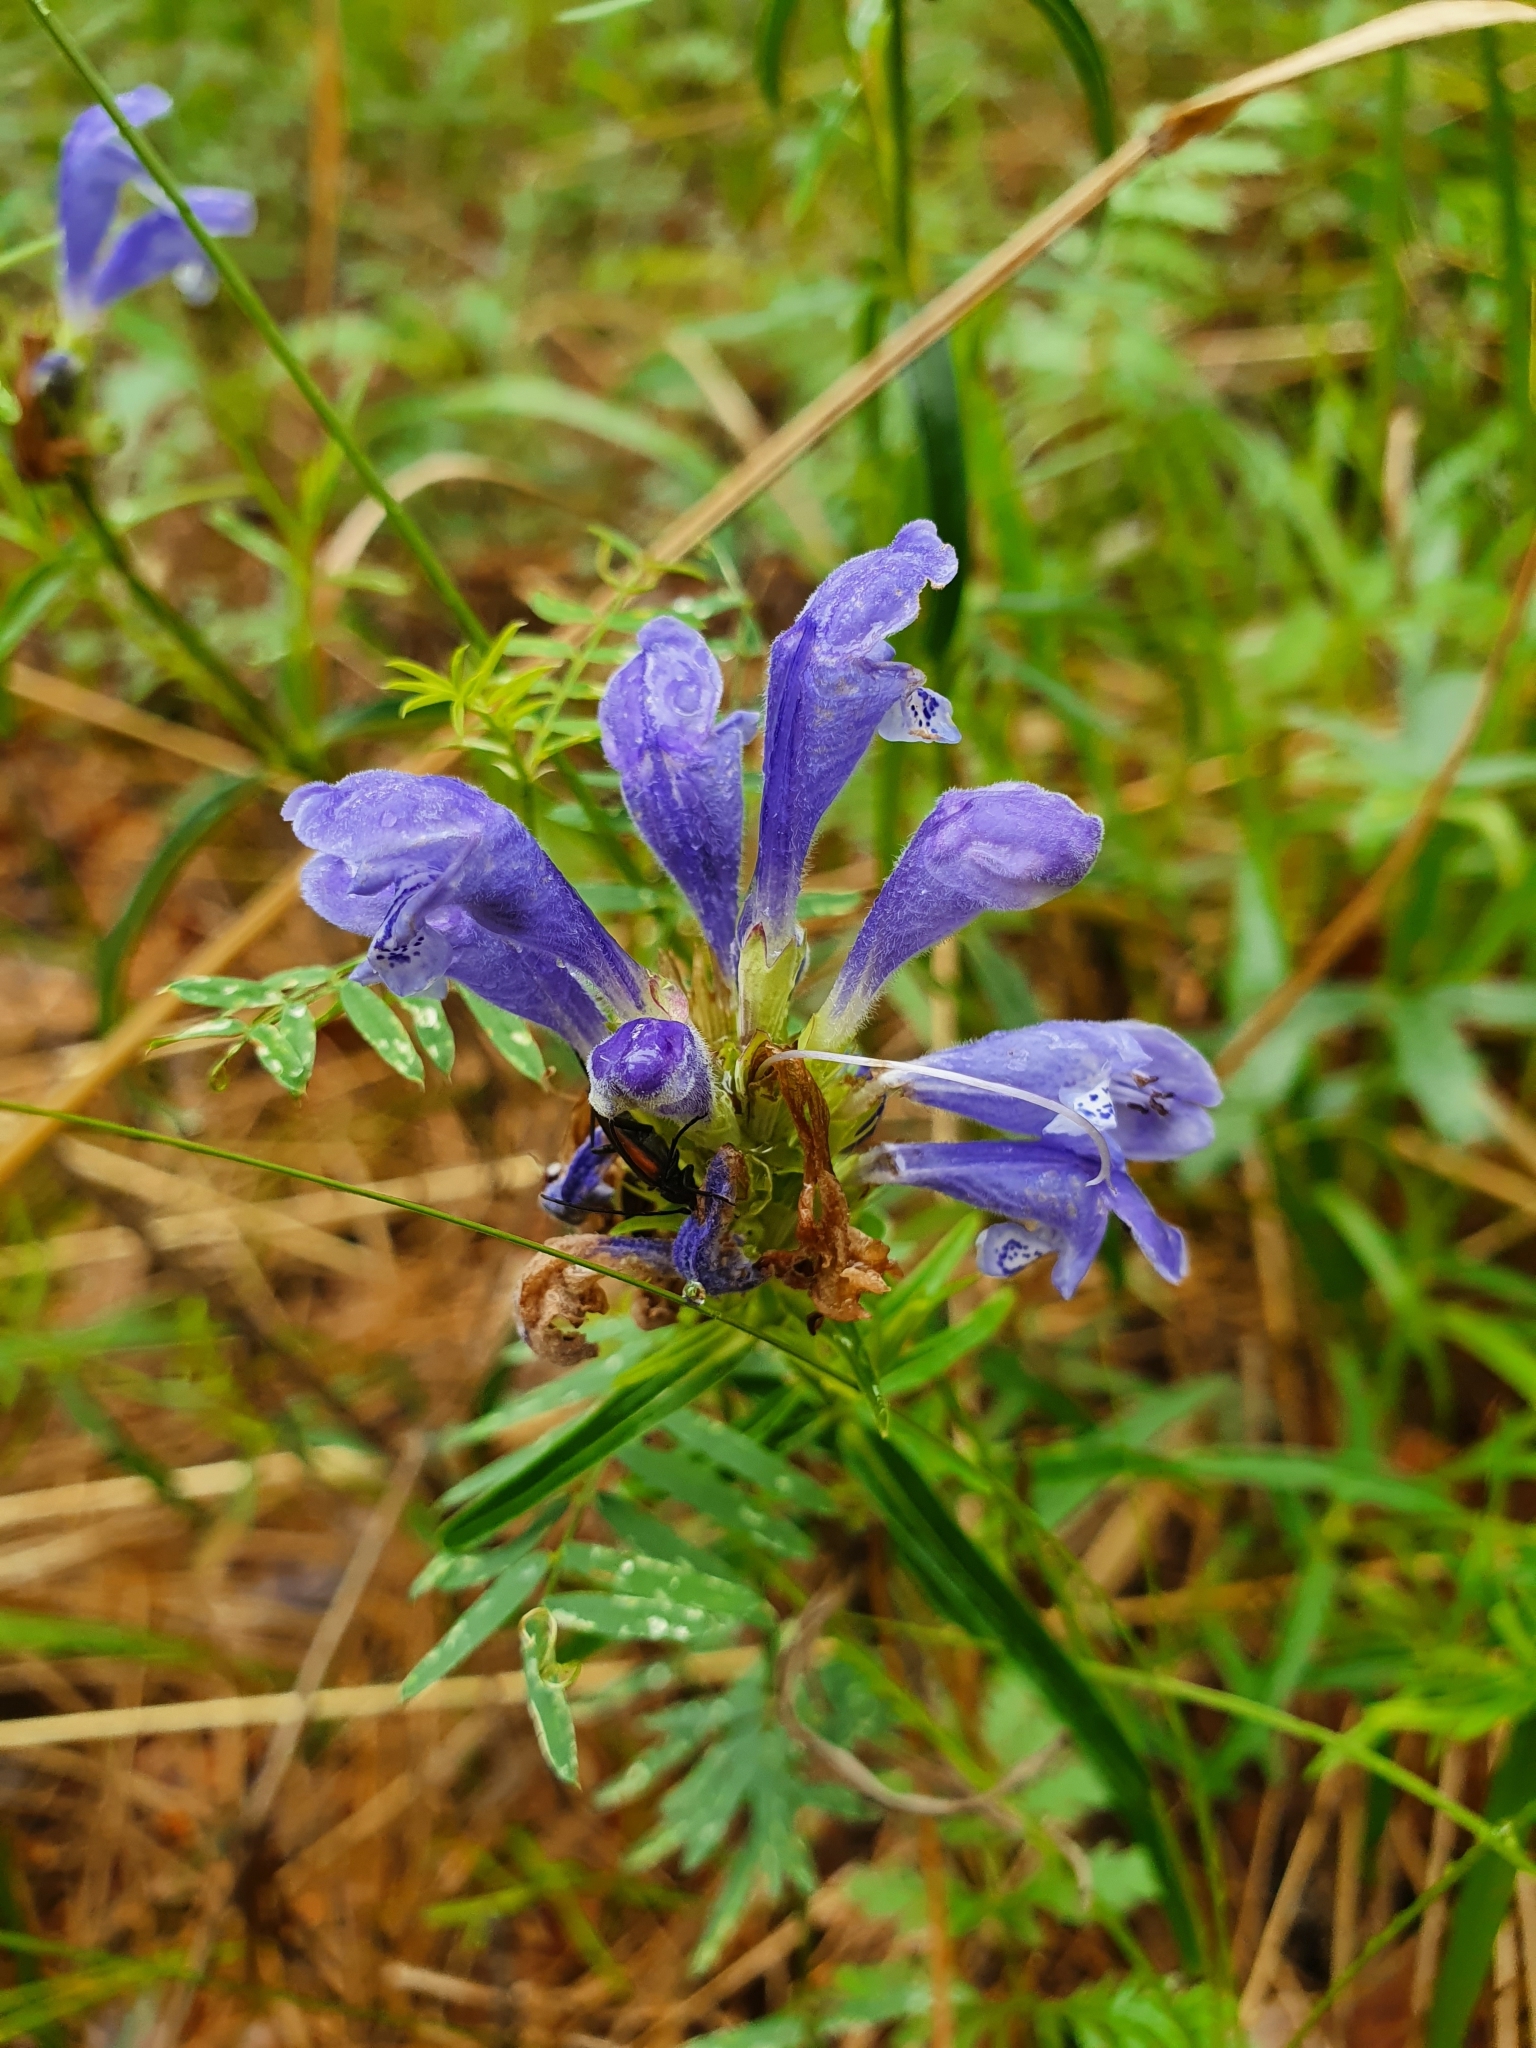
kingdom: Plantae
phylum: Tracheophyta
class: Magnoliopsida
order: Lamiales
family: Lamiaceae
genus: Dracocephalum
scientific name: Dracocephalum ruyschiana
